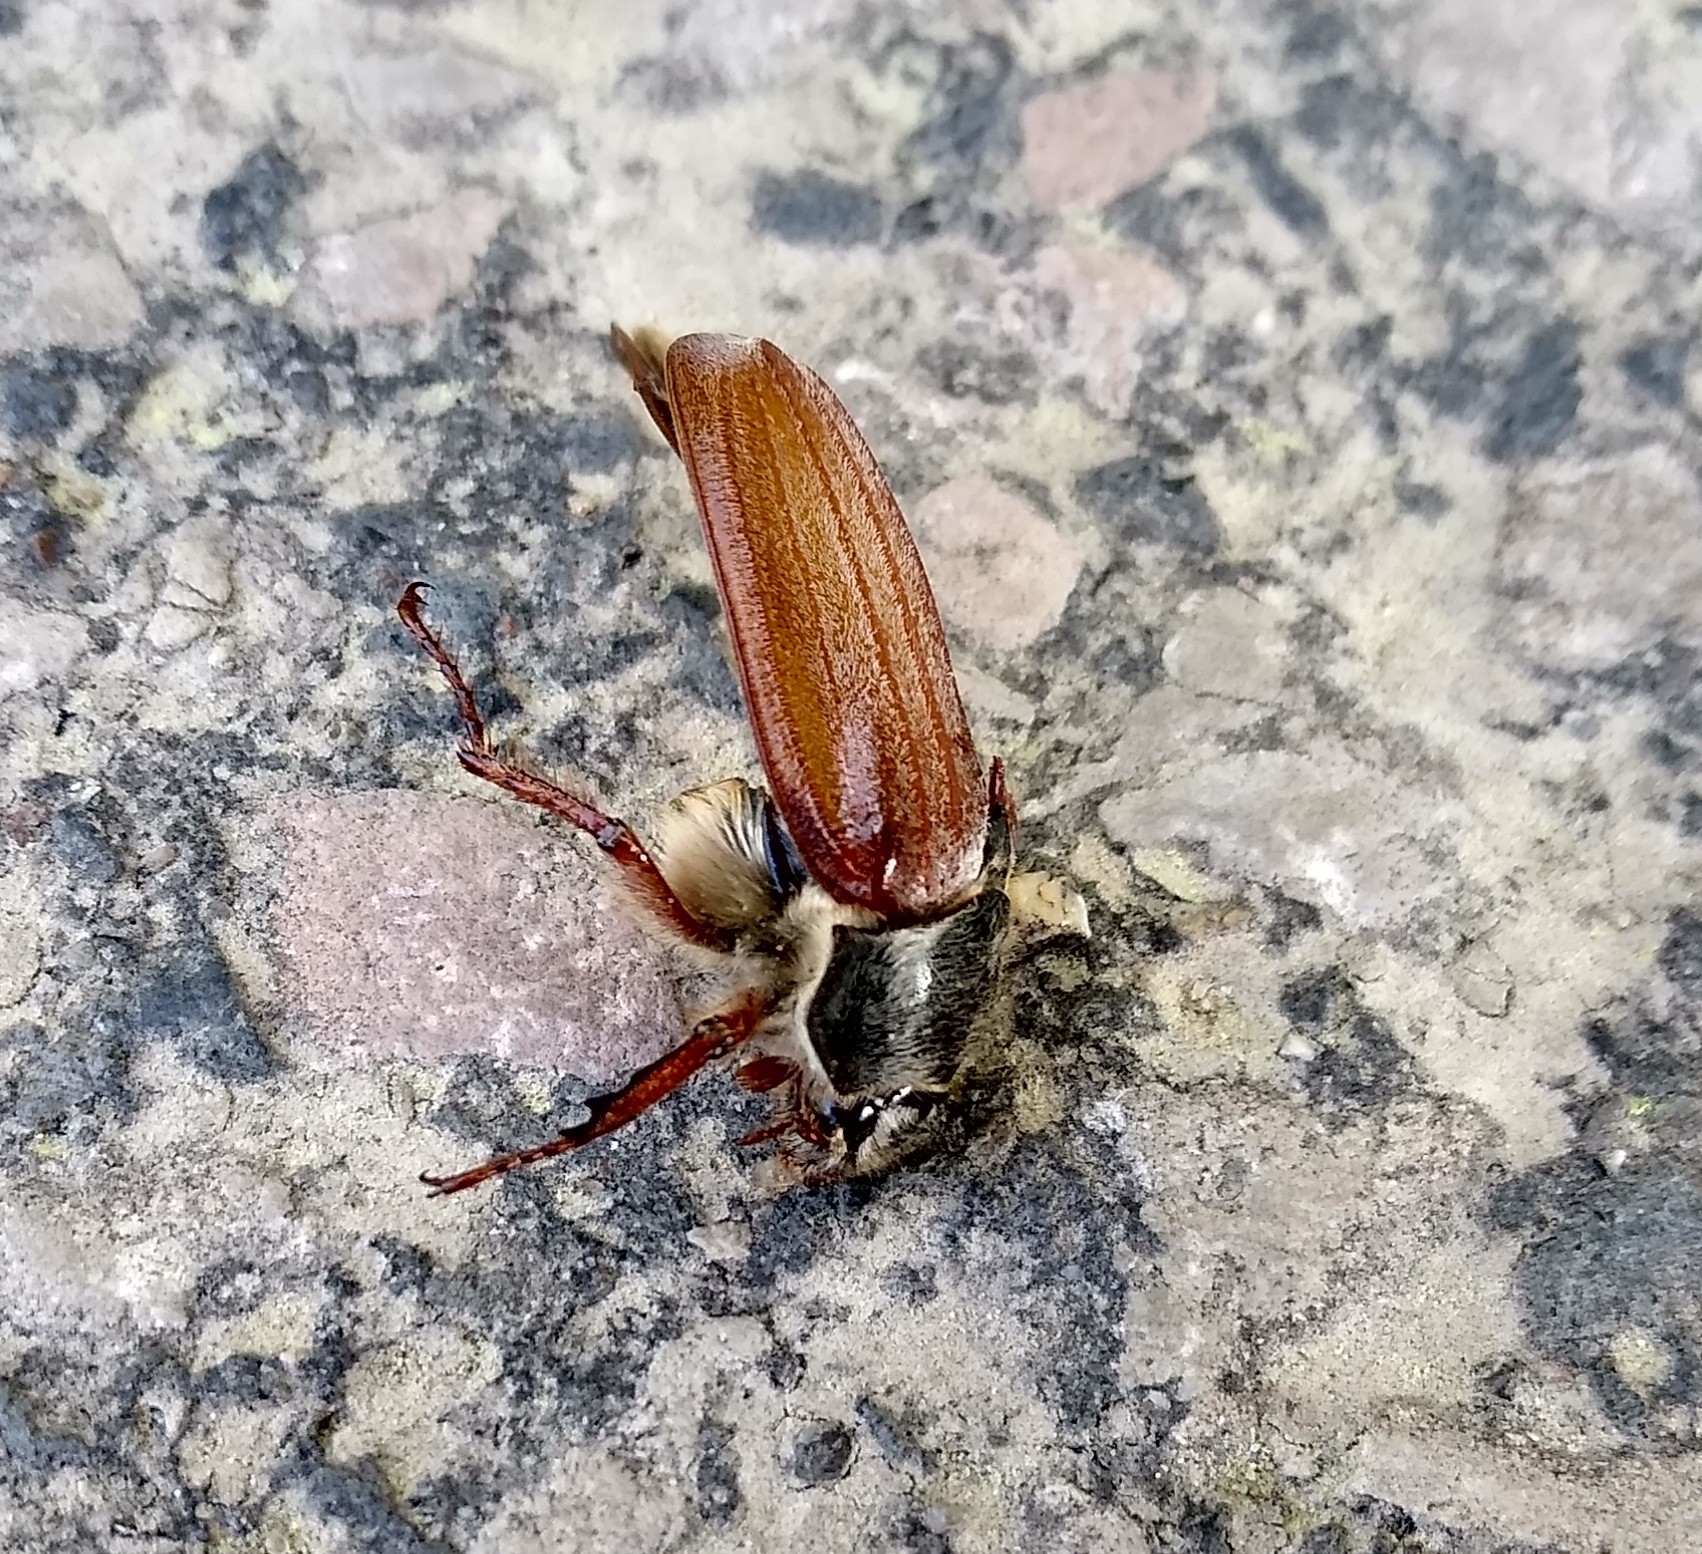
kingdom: Animalia
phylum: Arthropoda
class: Insecta
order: Coleoptera
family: Scarabaeidae
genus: Melolontha
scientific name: Melolontha melolontha
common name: Cockchafer maybeetle
